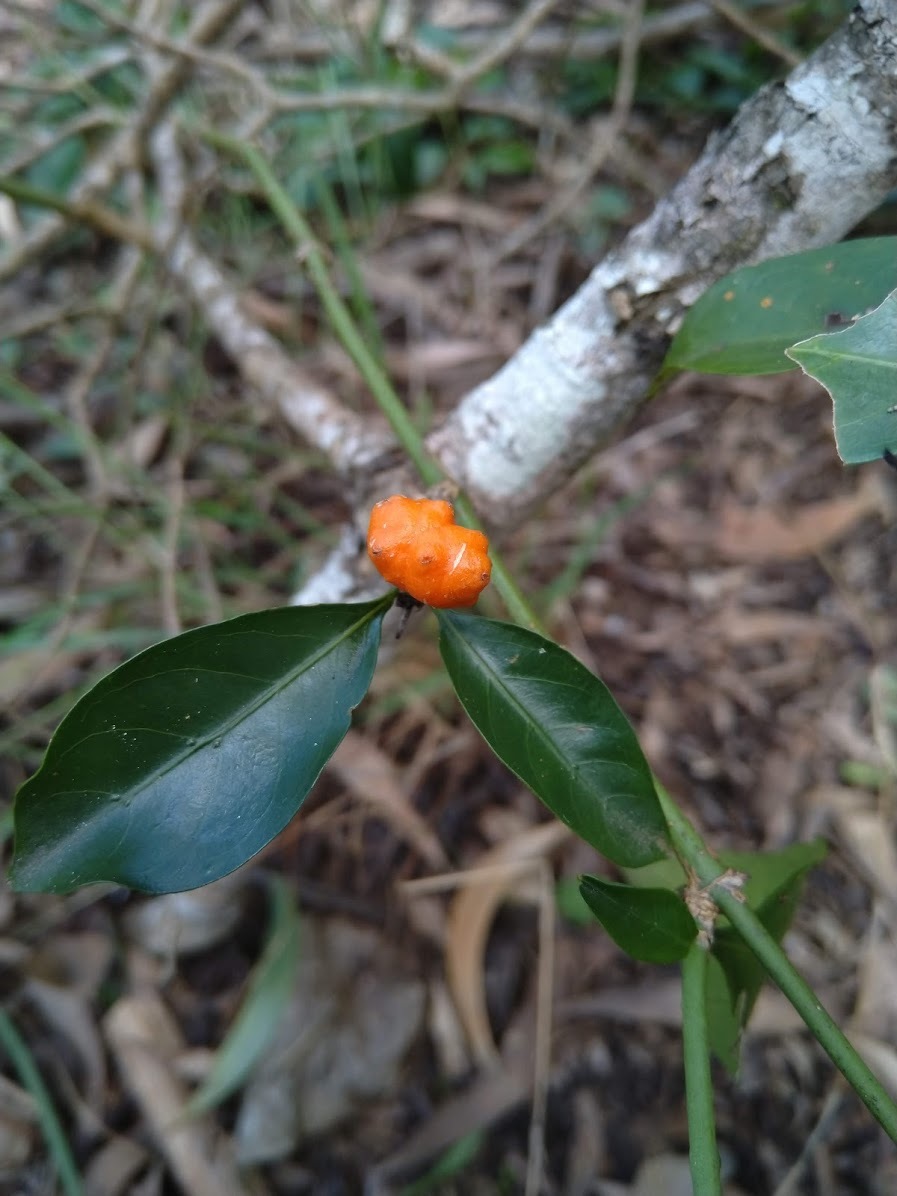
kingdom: Plantae
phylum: Tracheophyta
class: Magnoliopsida
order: Gentianales
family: Rubiaceae
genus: Gynochthodes
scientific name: Gynochthodes jasminoides
